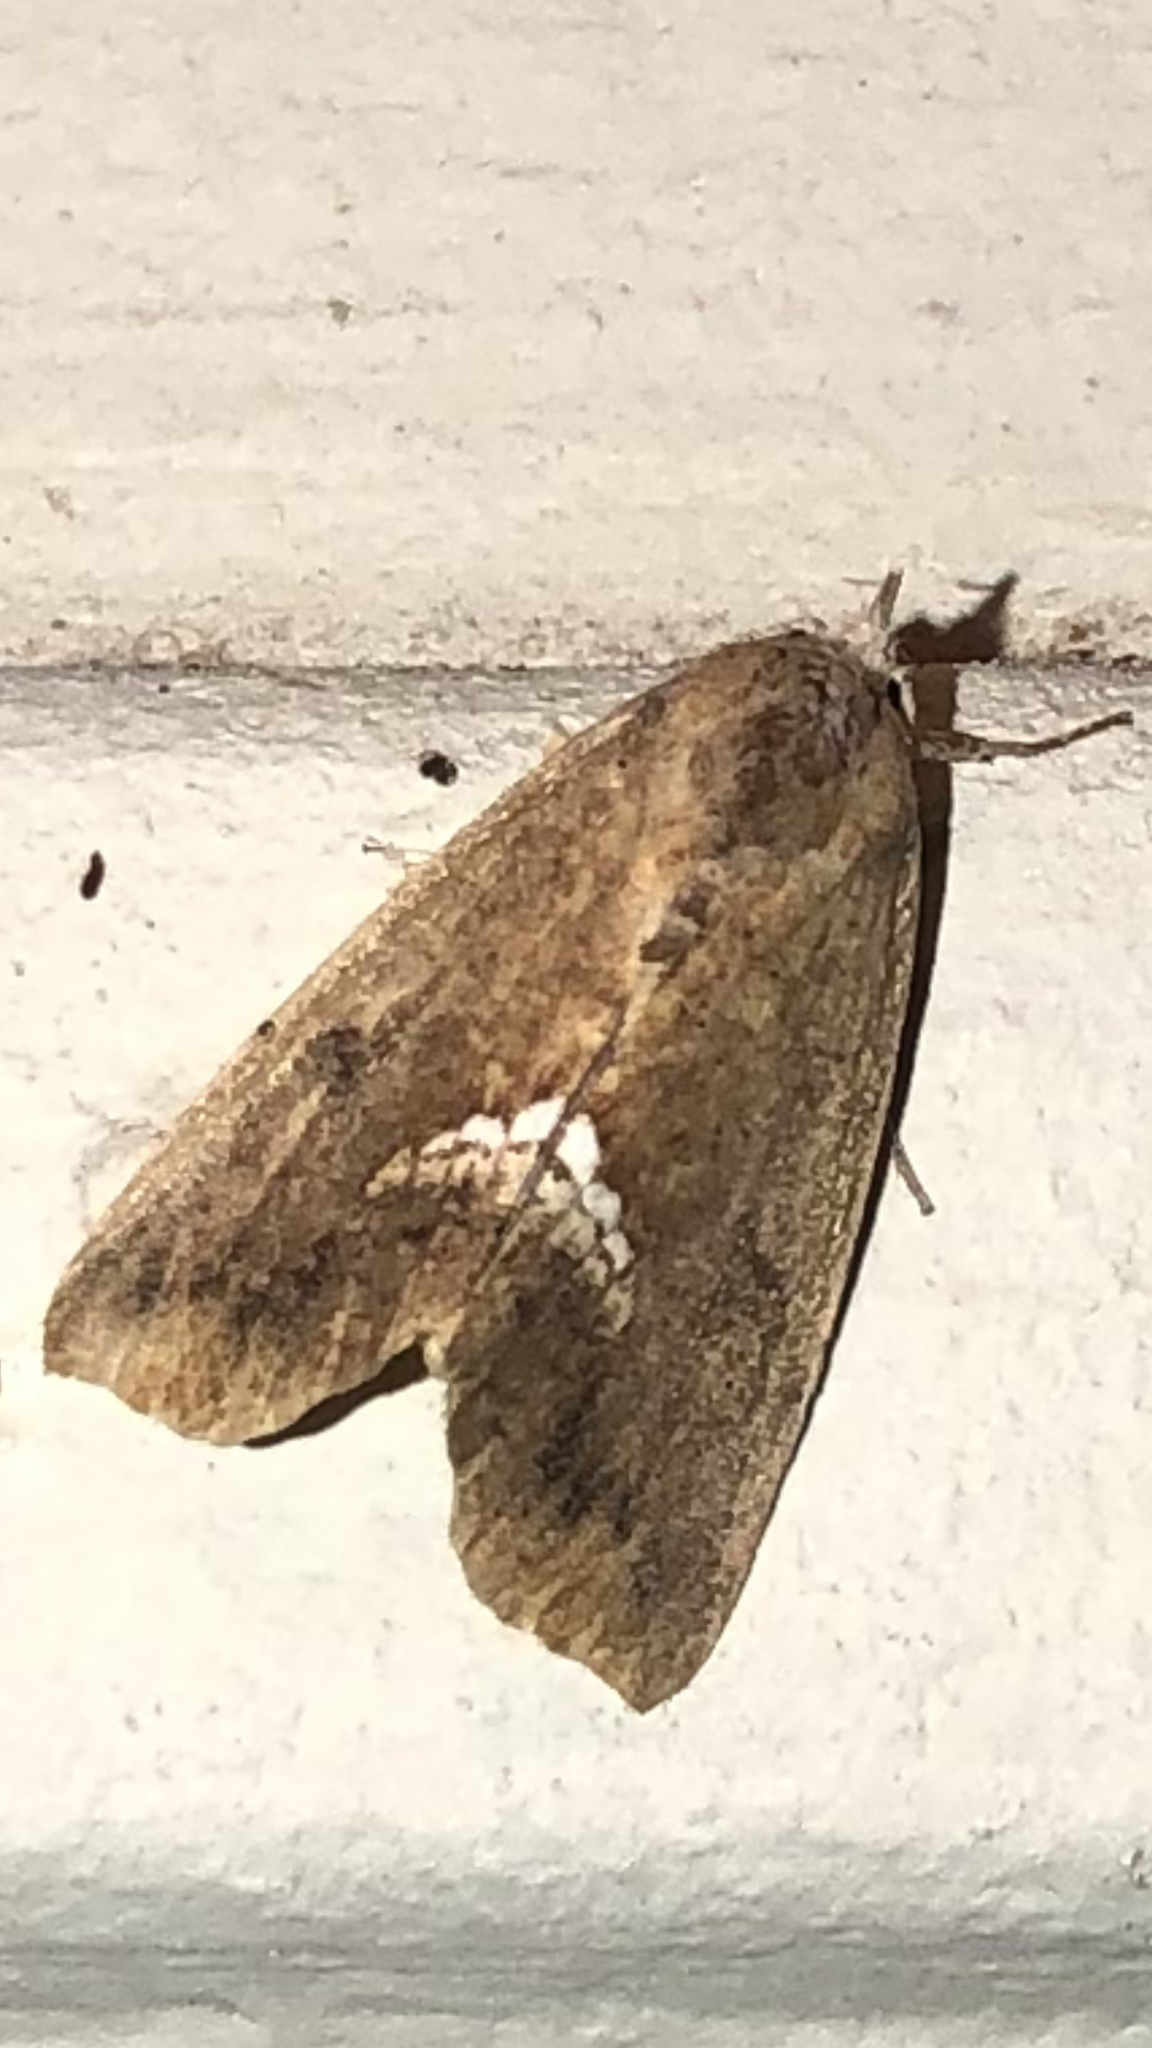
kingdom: Animalia
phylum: Arthropoda
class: Insecta
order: Lepidoptera
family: Erebidae
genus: Hypsoropha
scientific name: Hypsoropha hormos
